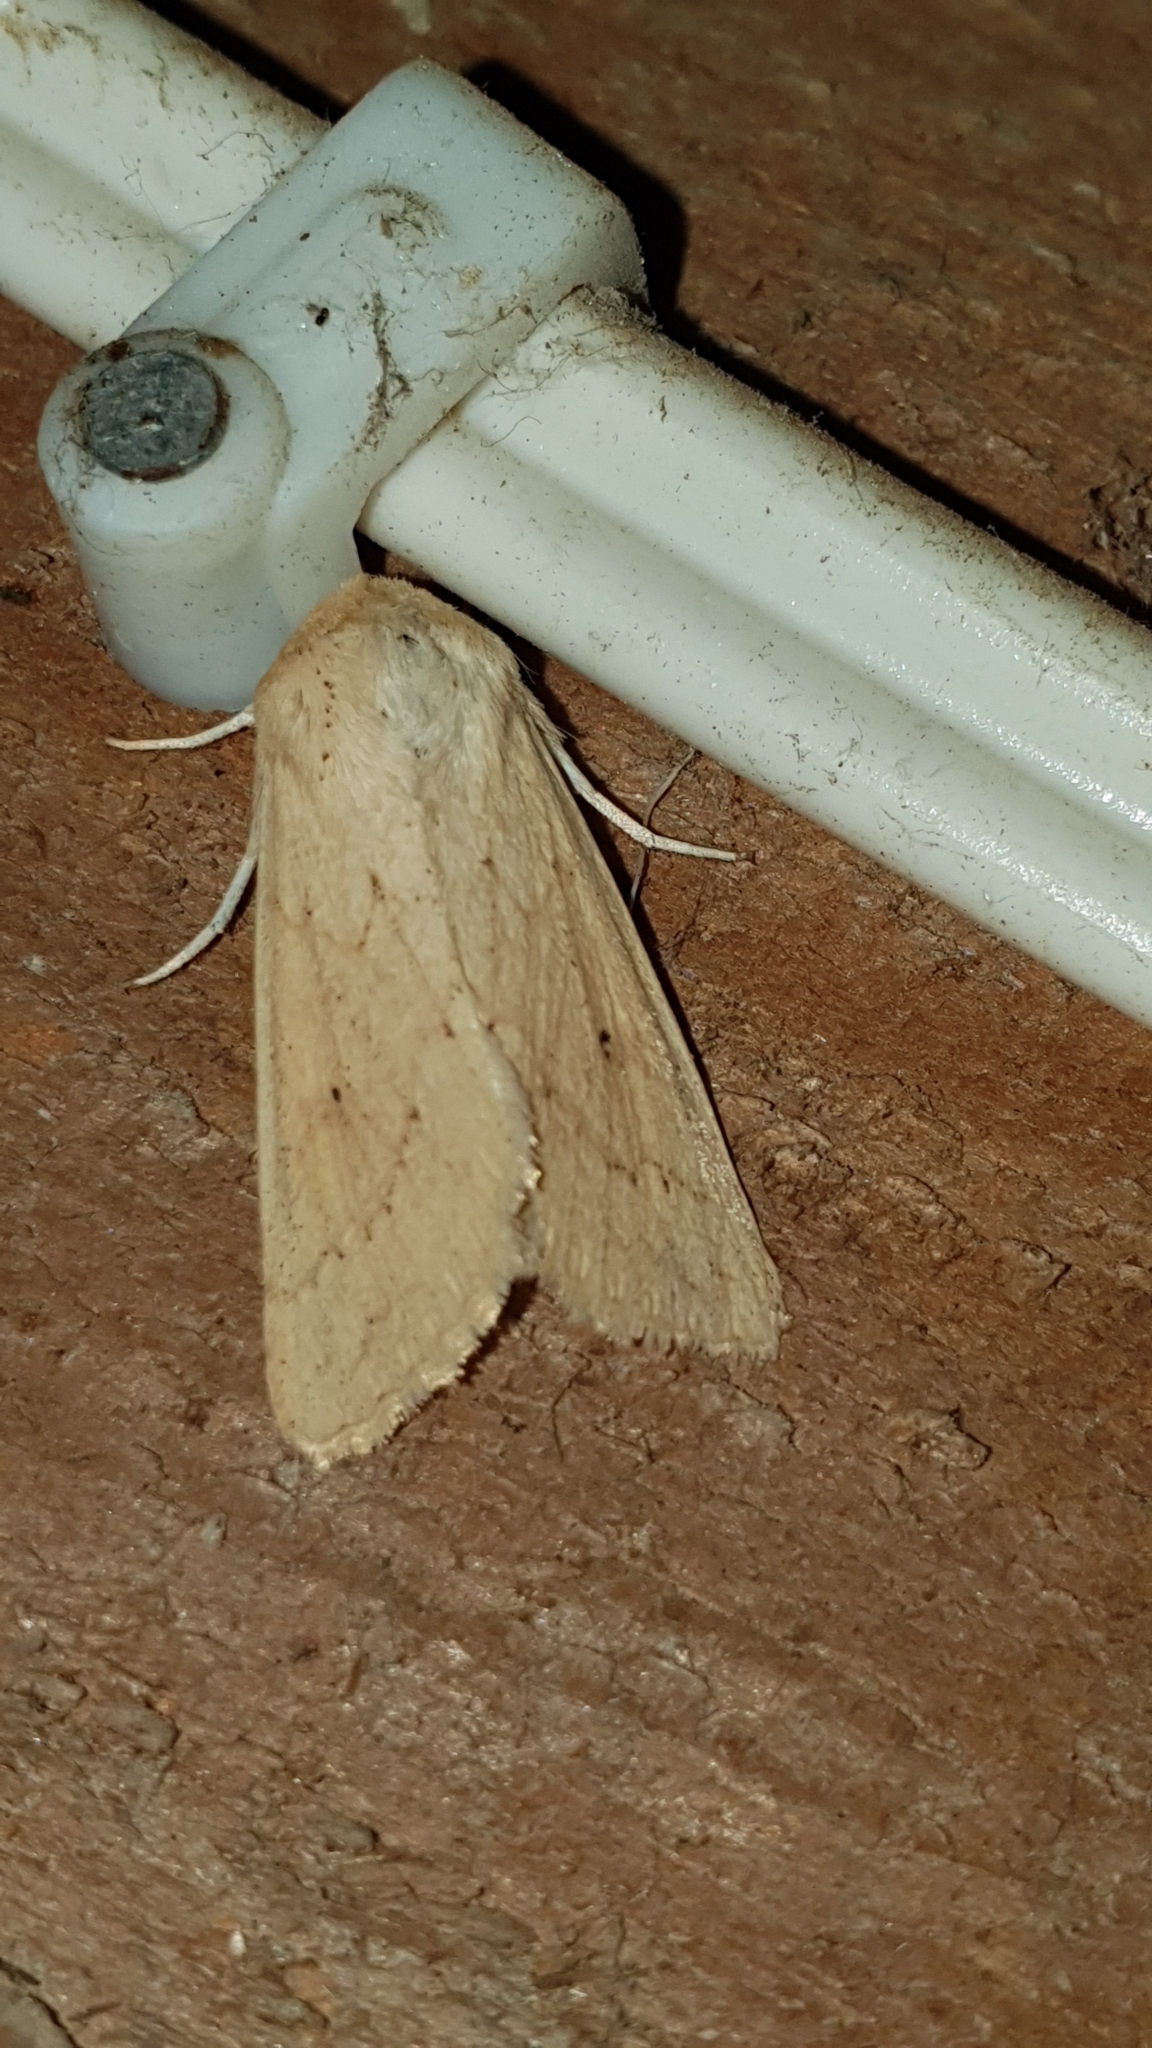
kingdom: Animalia
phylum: Arthropoda
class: Insecta
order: Lepidoptera
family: Noctuidae
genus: Mythimna
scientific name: Mythimna vitellina
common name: Delicate
